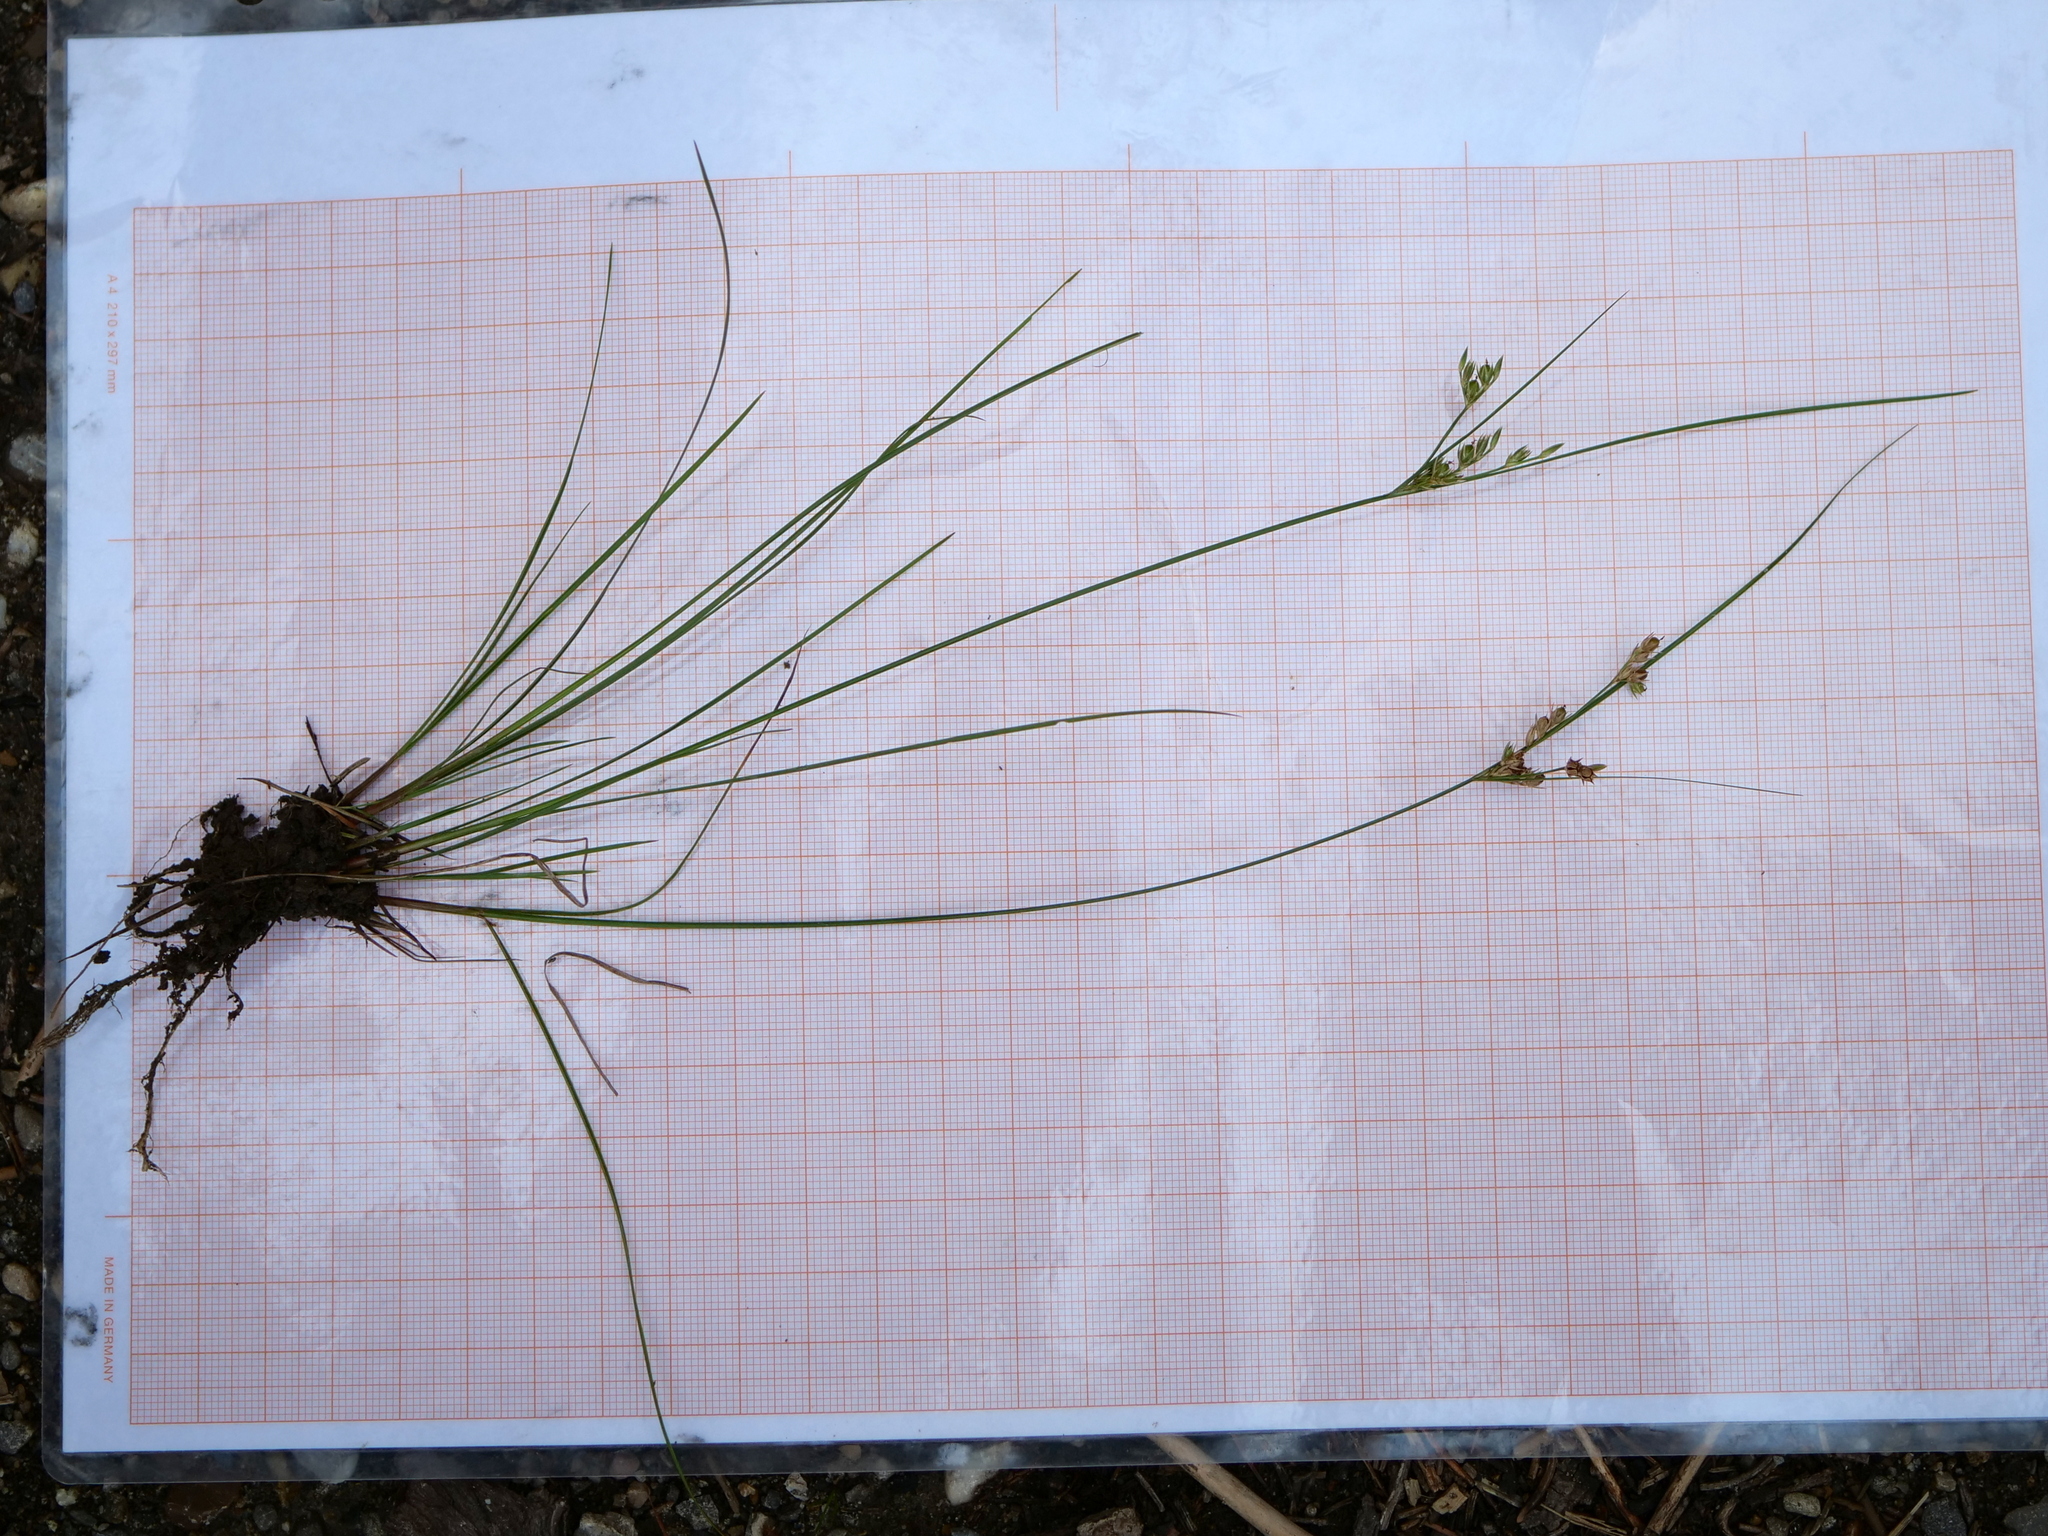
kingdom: Plantae
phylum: Tracheophyta
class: Liliopsida
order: Poales
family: Juncaceae
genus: Juncus
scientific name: Juncus tenuis
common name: Slender rush
